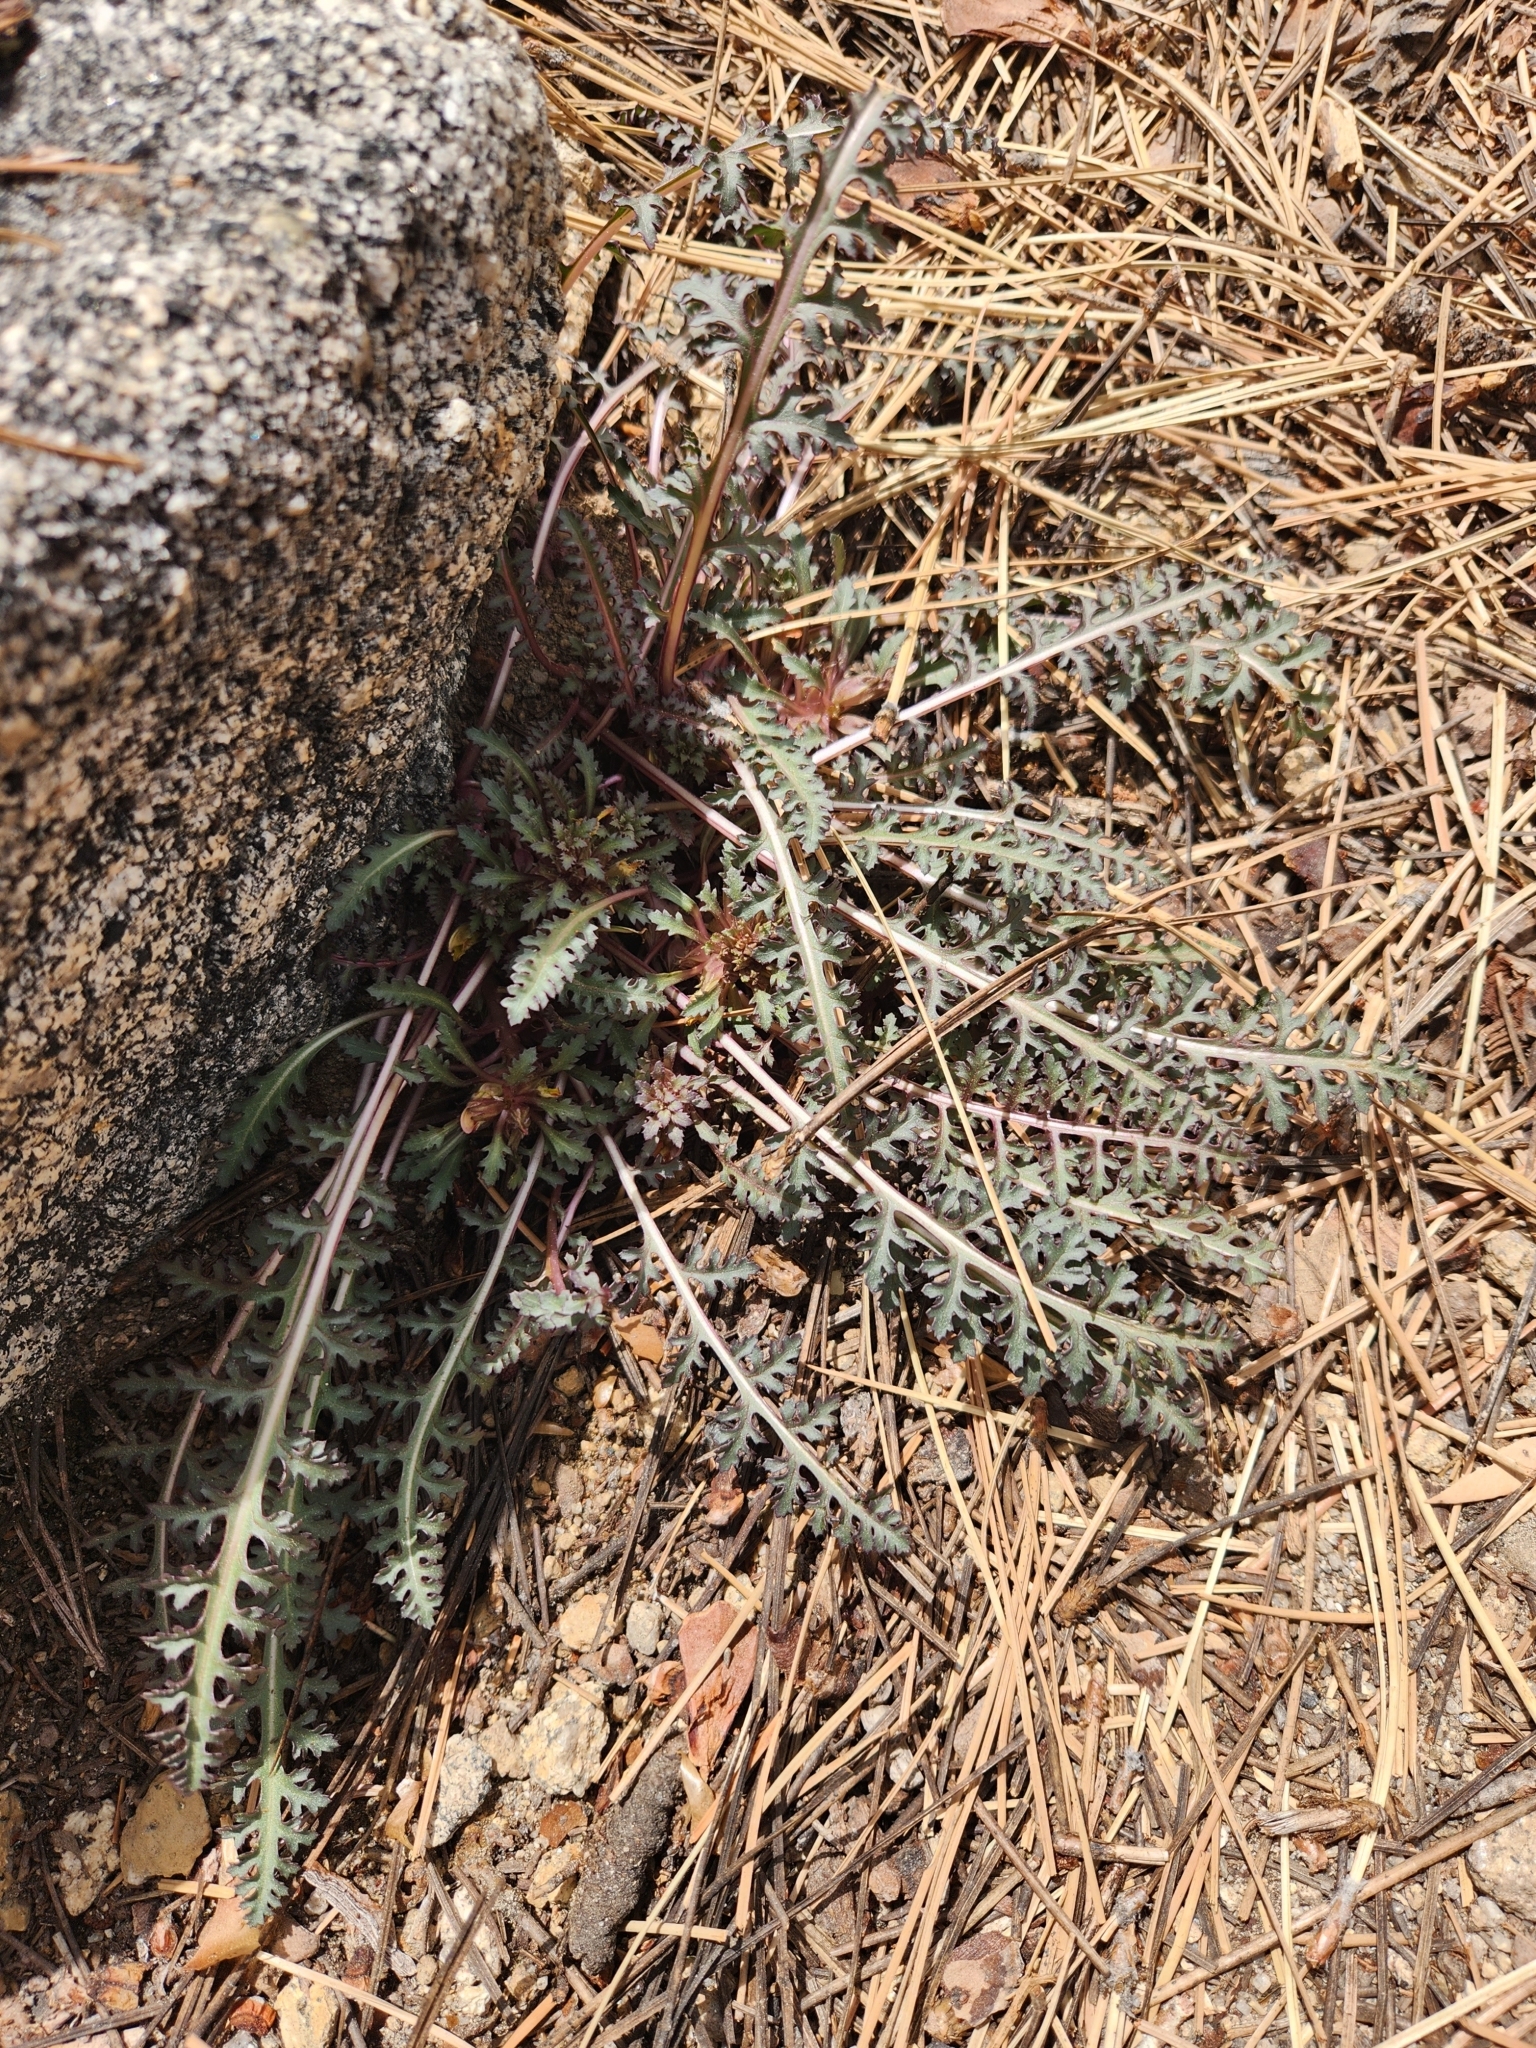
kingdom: Plantae
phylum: Tracheophyta
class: Magnoliopsida
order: Lamiales
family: Orobanchaceae
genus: Pedicularis
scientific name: Pedicularis semibarbata
